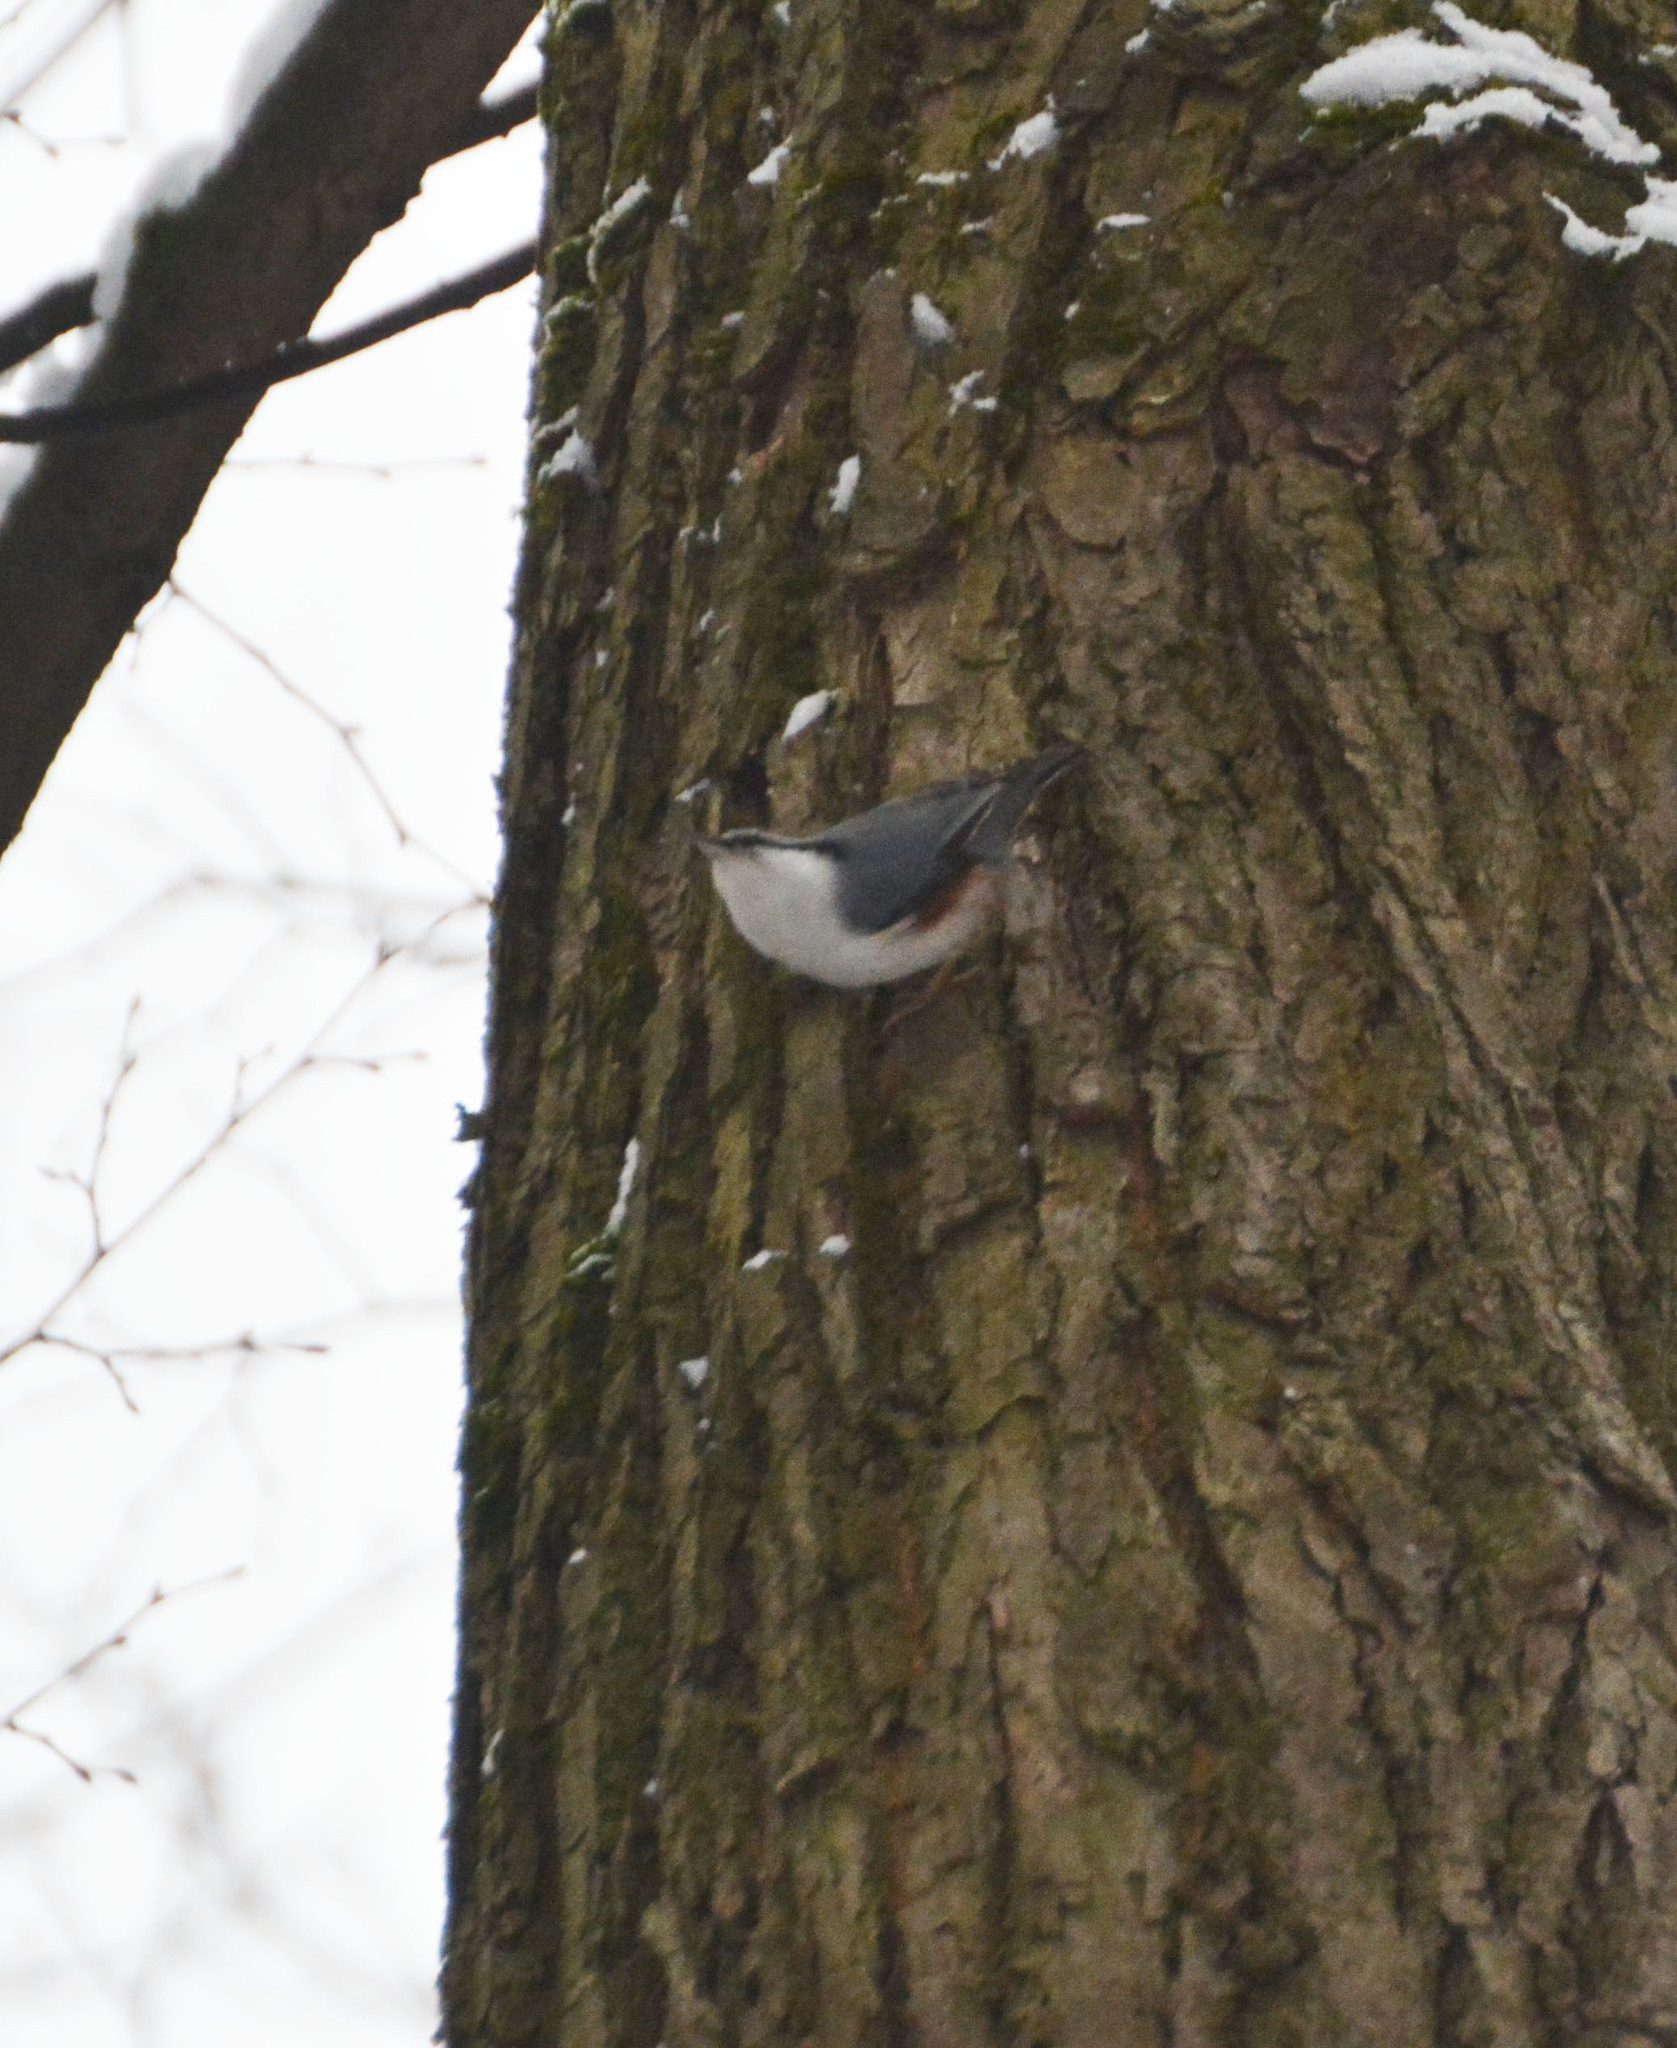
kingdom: Animalia
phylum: Chordata
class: Aves
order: Passeriformes
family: Sittidae
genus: Sitta
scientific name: Sitta europaea
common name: Eurasian nuthatch
